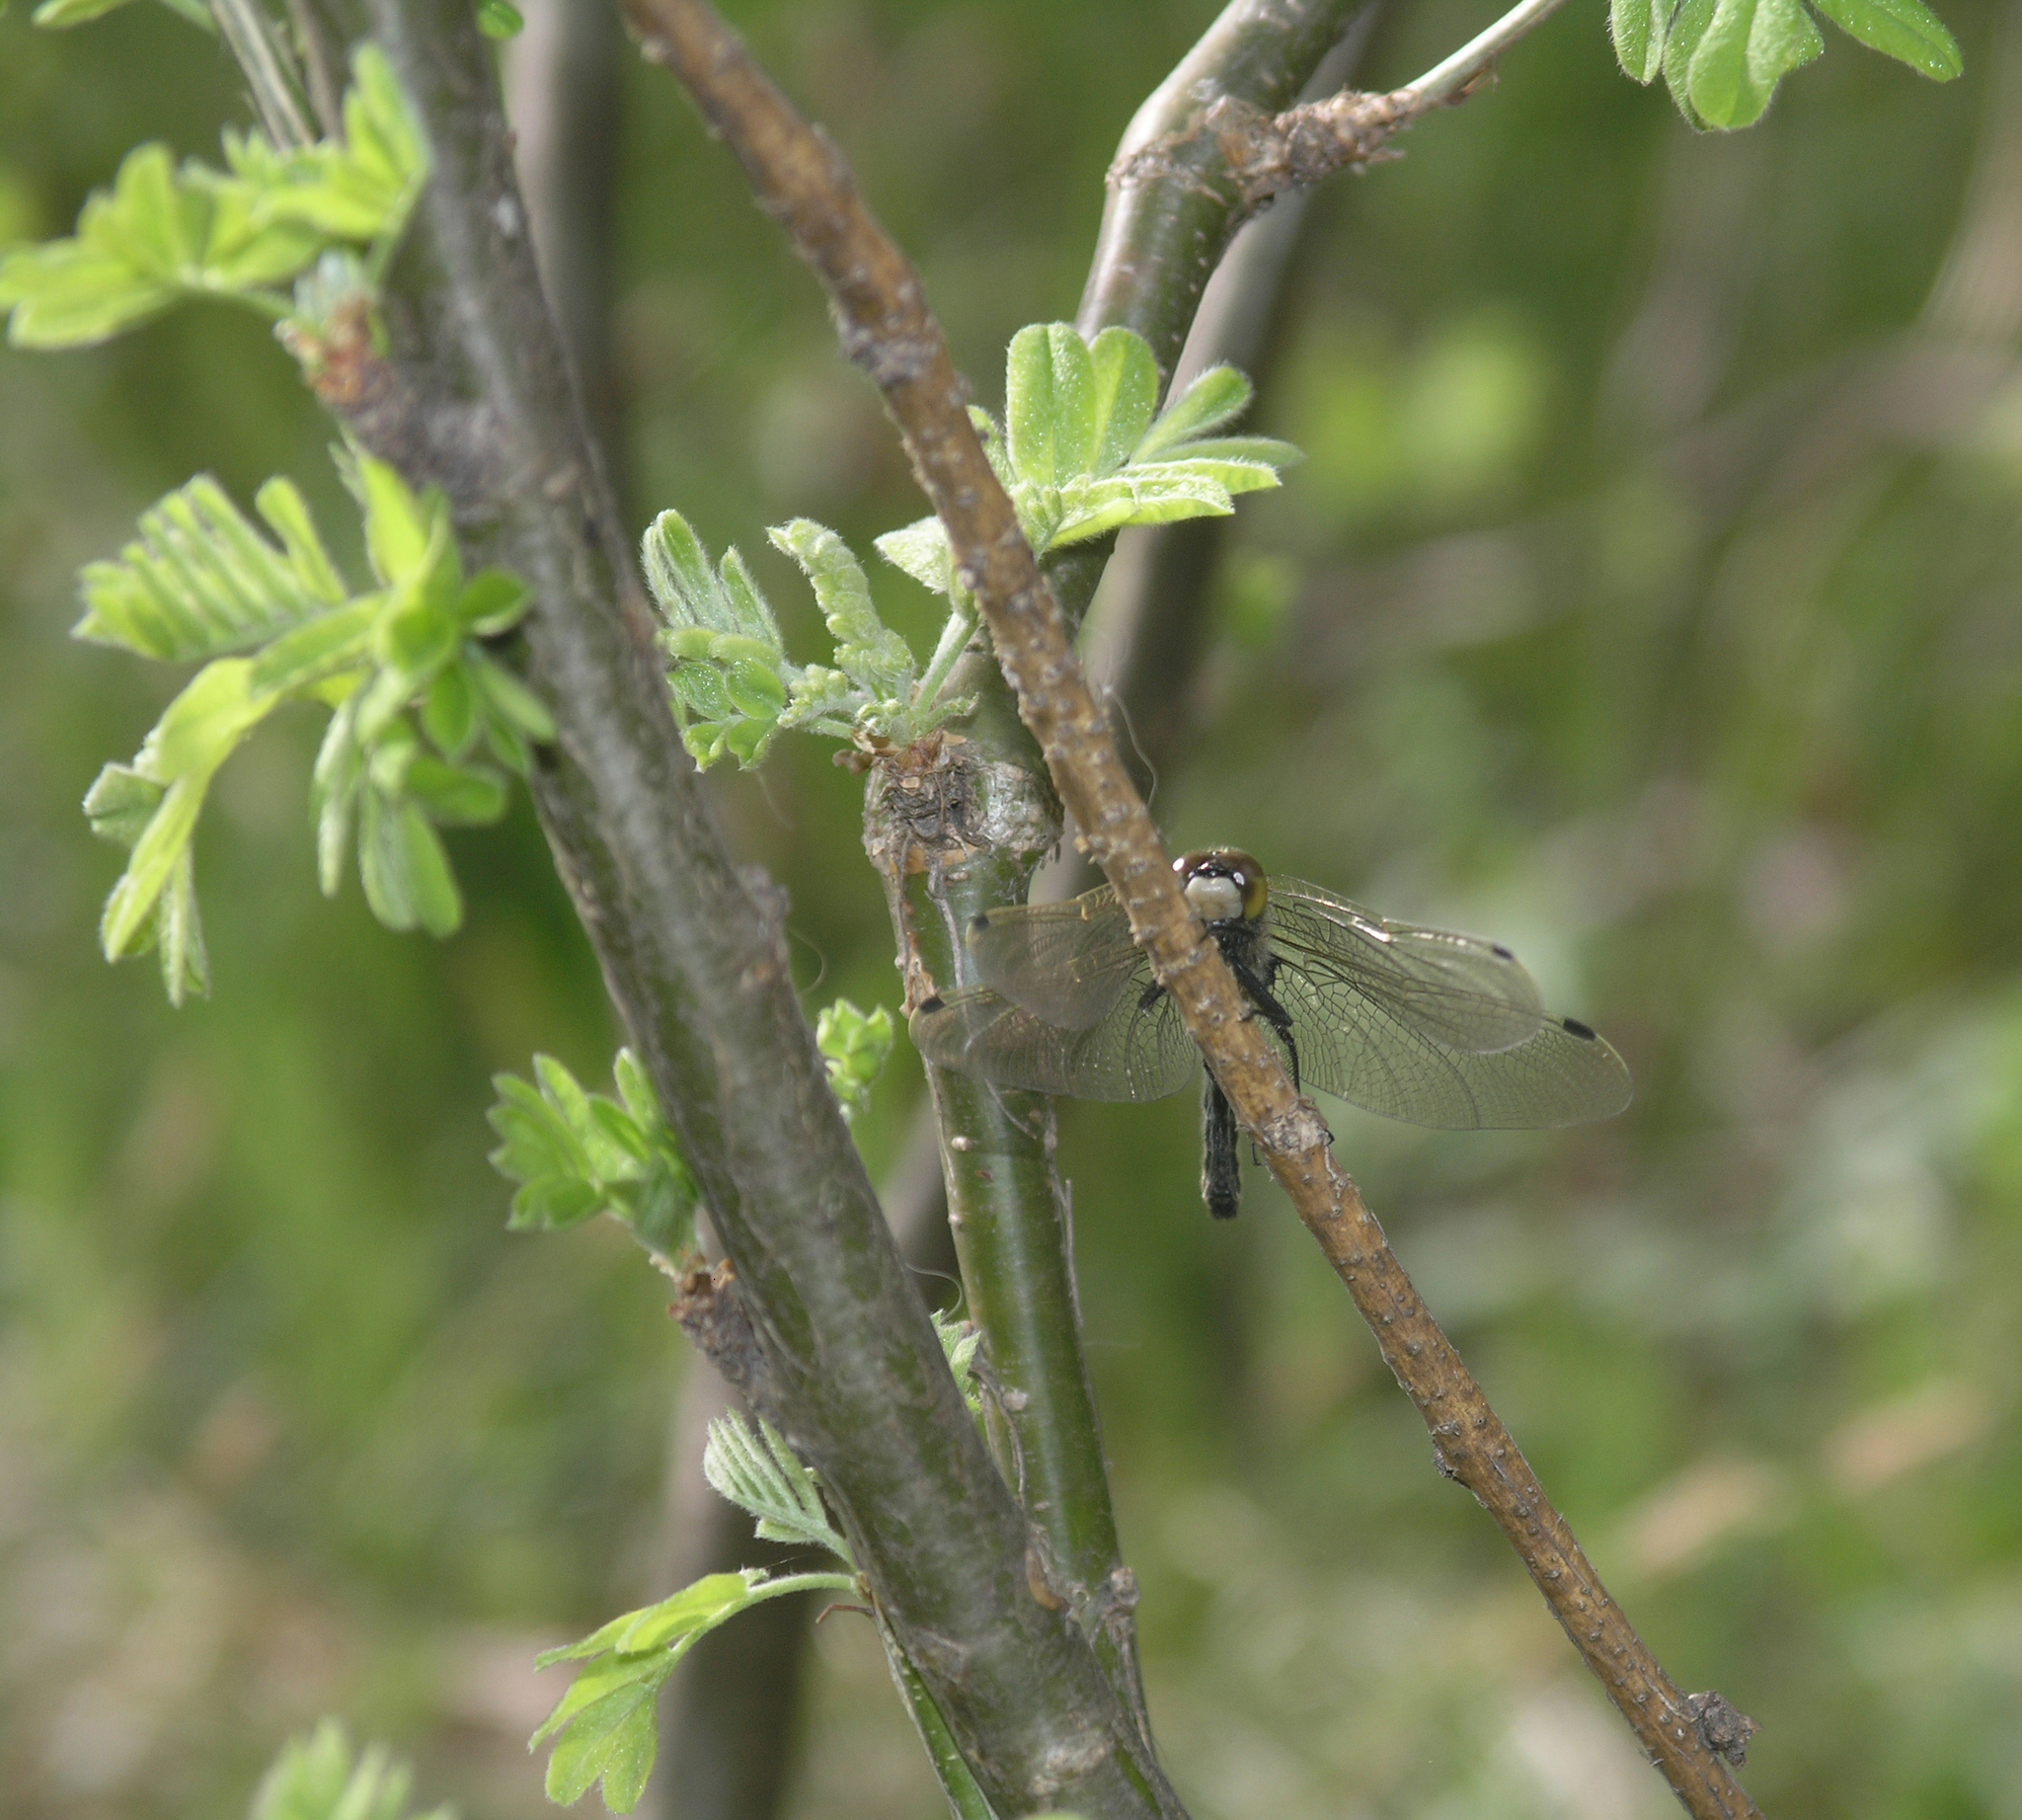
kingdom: Plantae
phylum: Tracheophyta
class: Magnoliopsida
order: Fabales
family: Fabaceae
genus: Caragana
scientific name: Caragana arborescens
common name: Siberian peashrub
